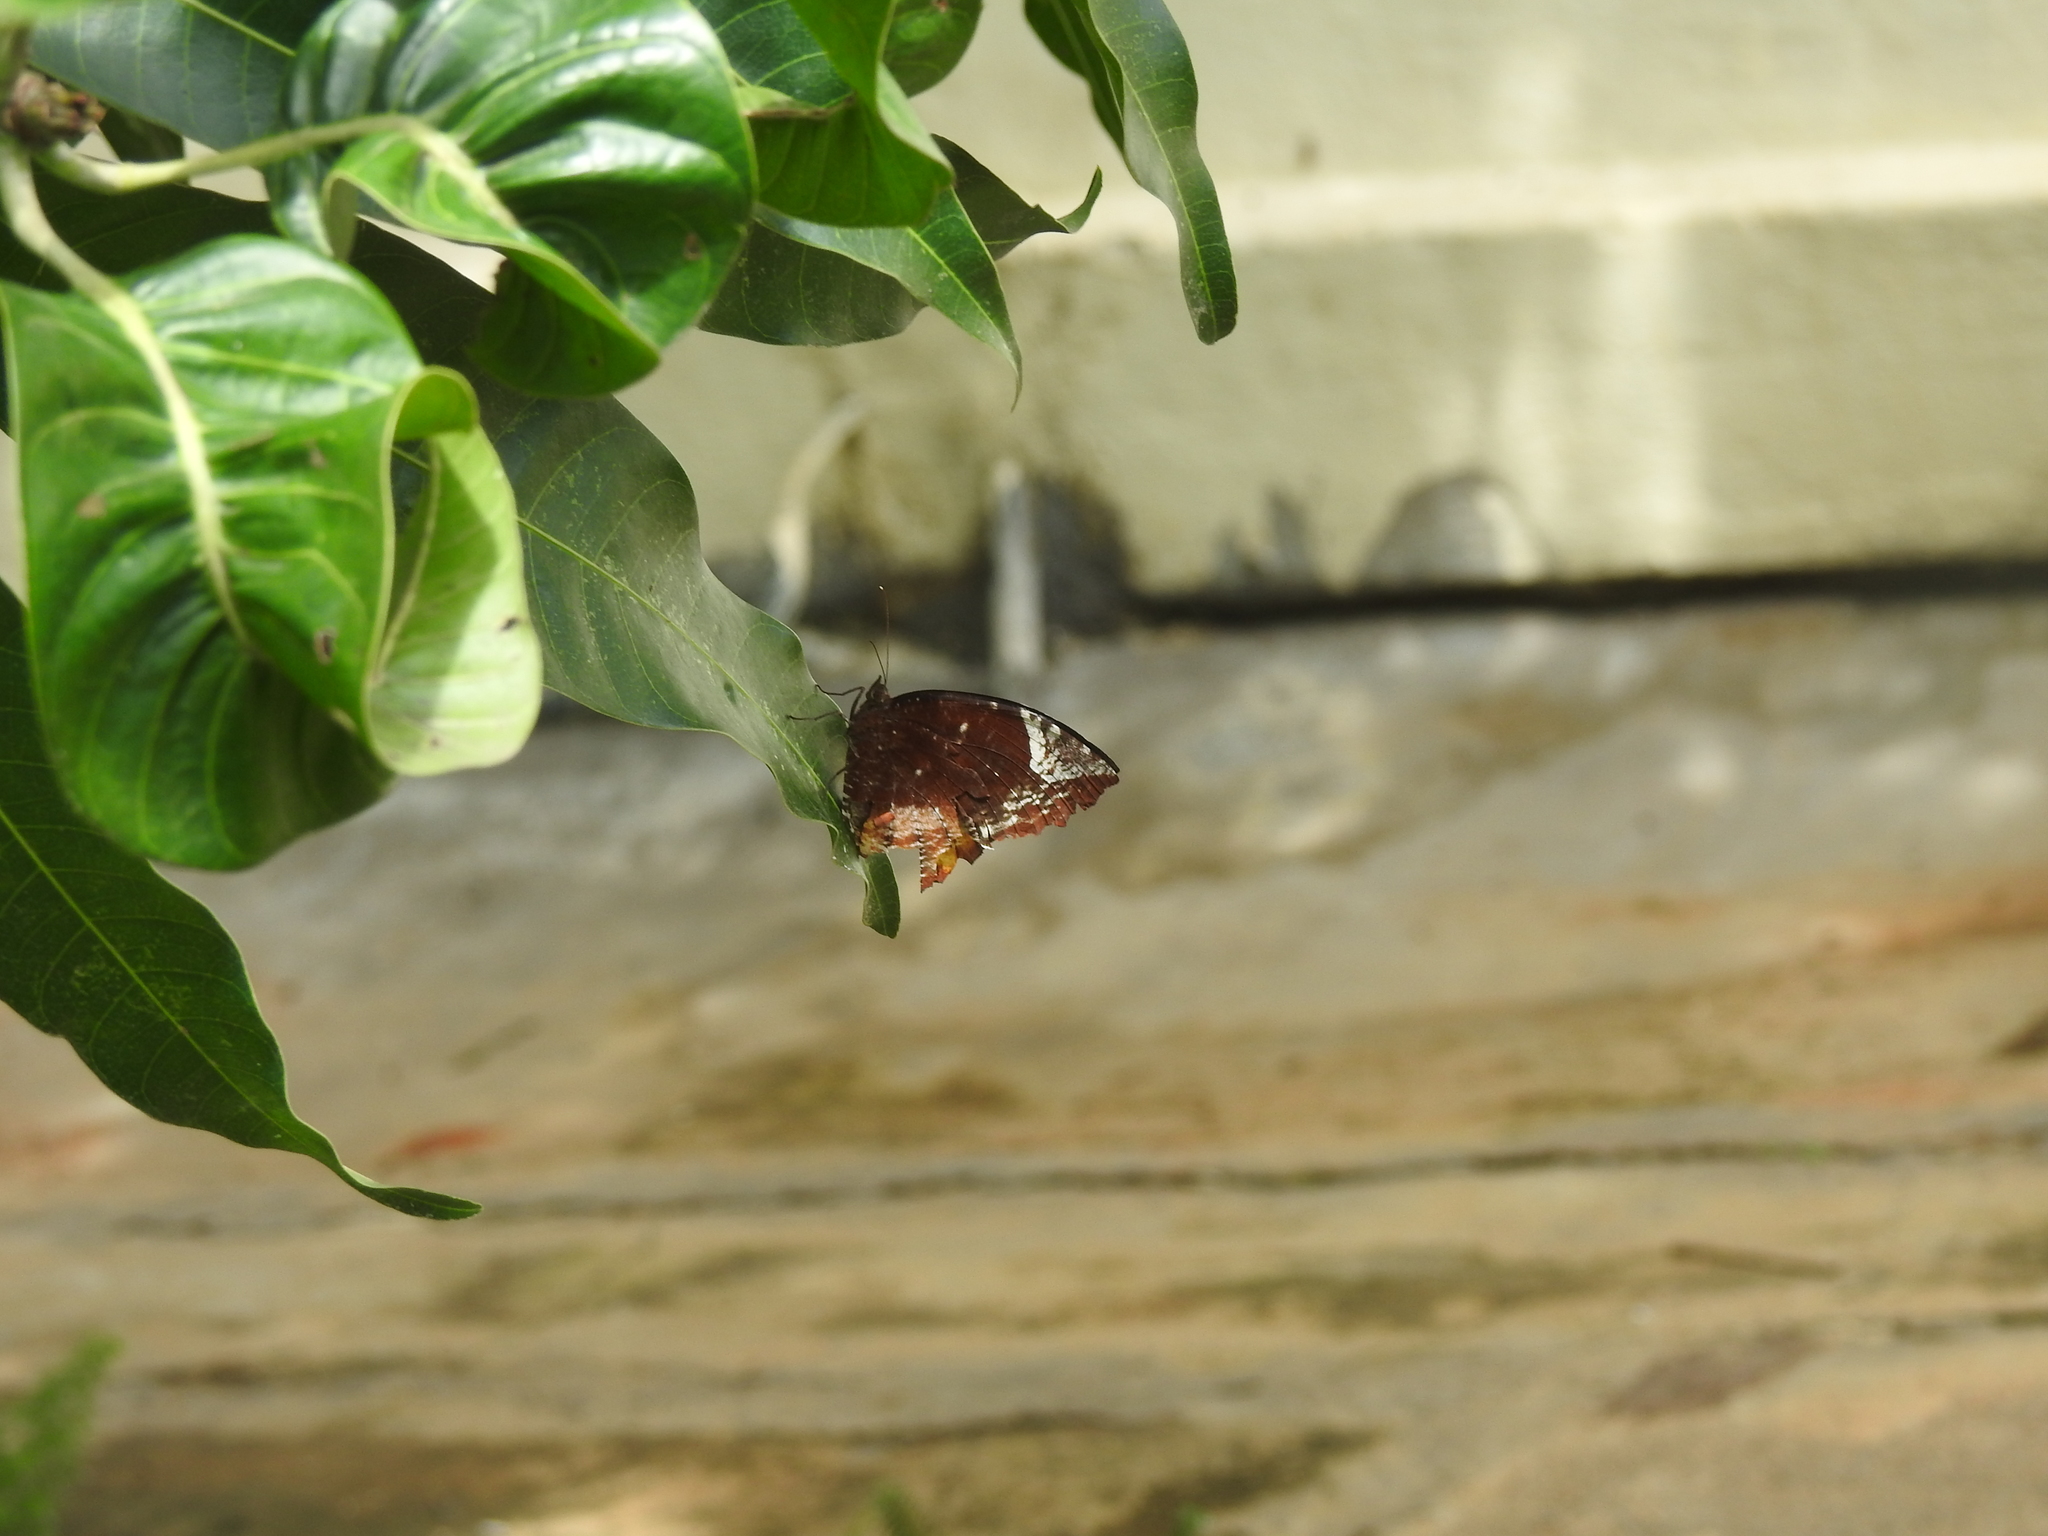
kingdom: Animalia
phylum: Arthropoda
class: Insecta
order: Lepidoptera
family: Nymphalidae
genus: Elymnias
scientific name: Elymnias caudata
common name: Tailed palmfly
